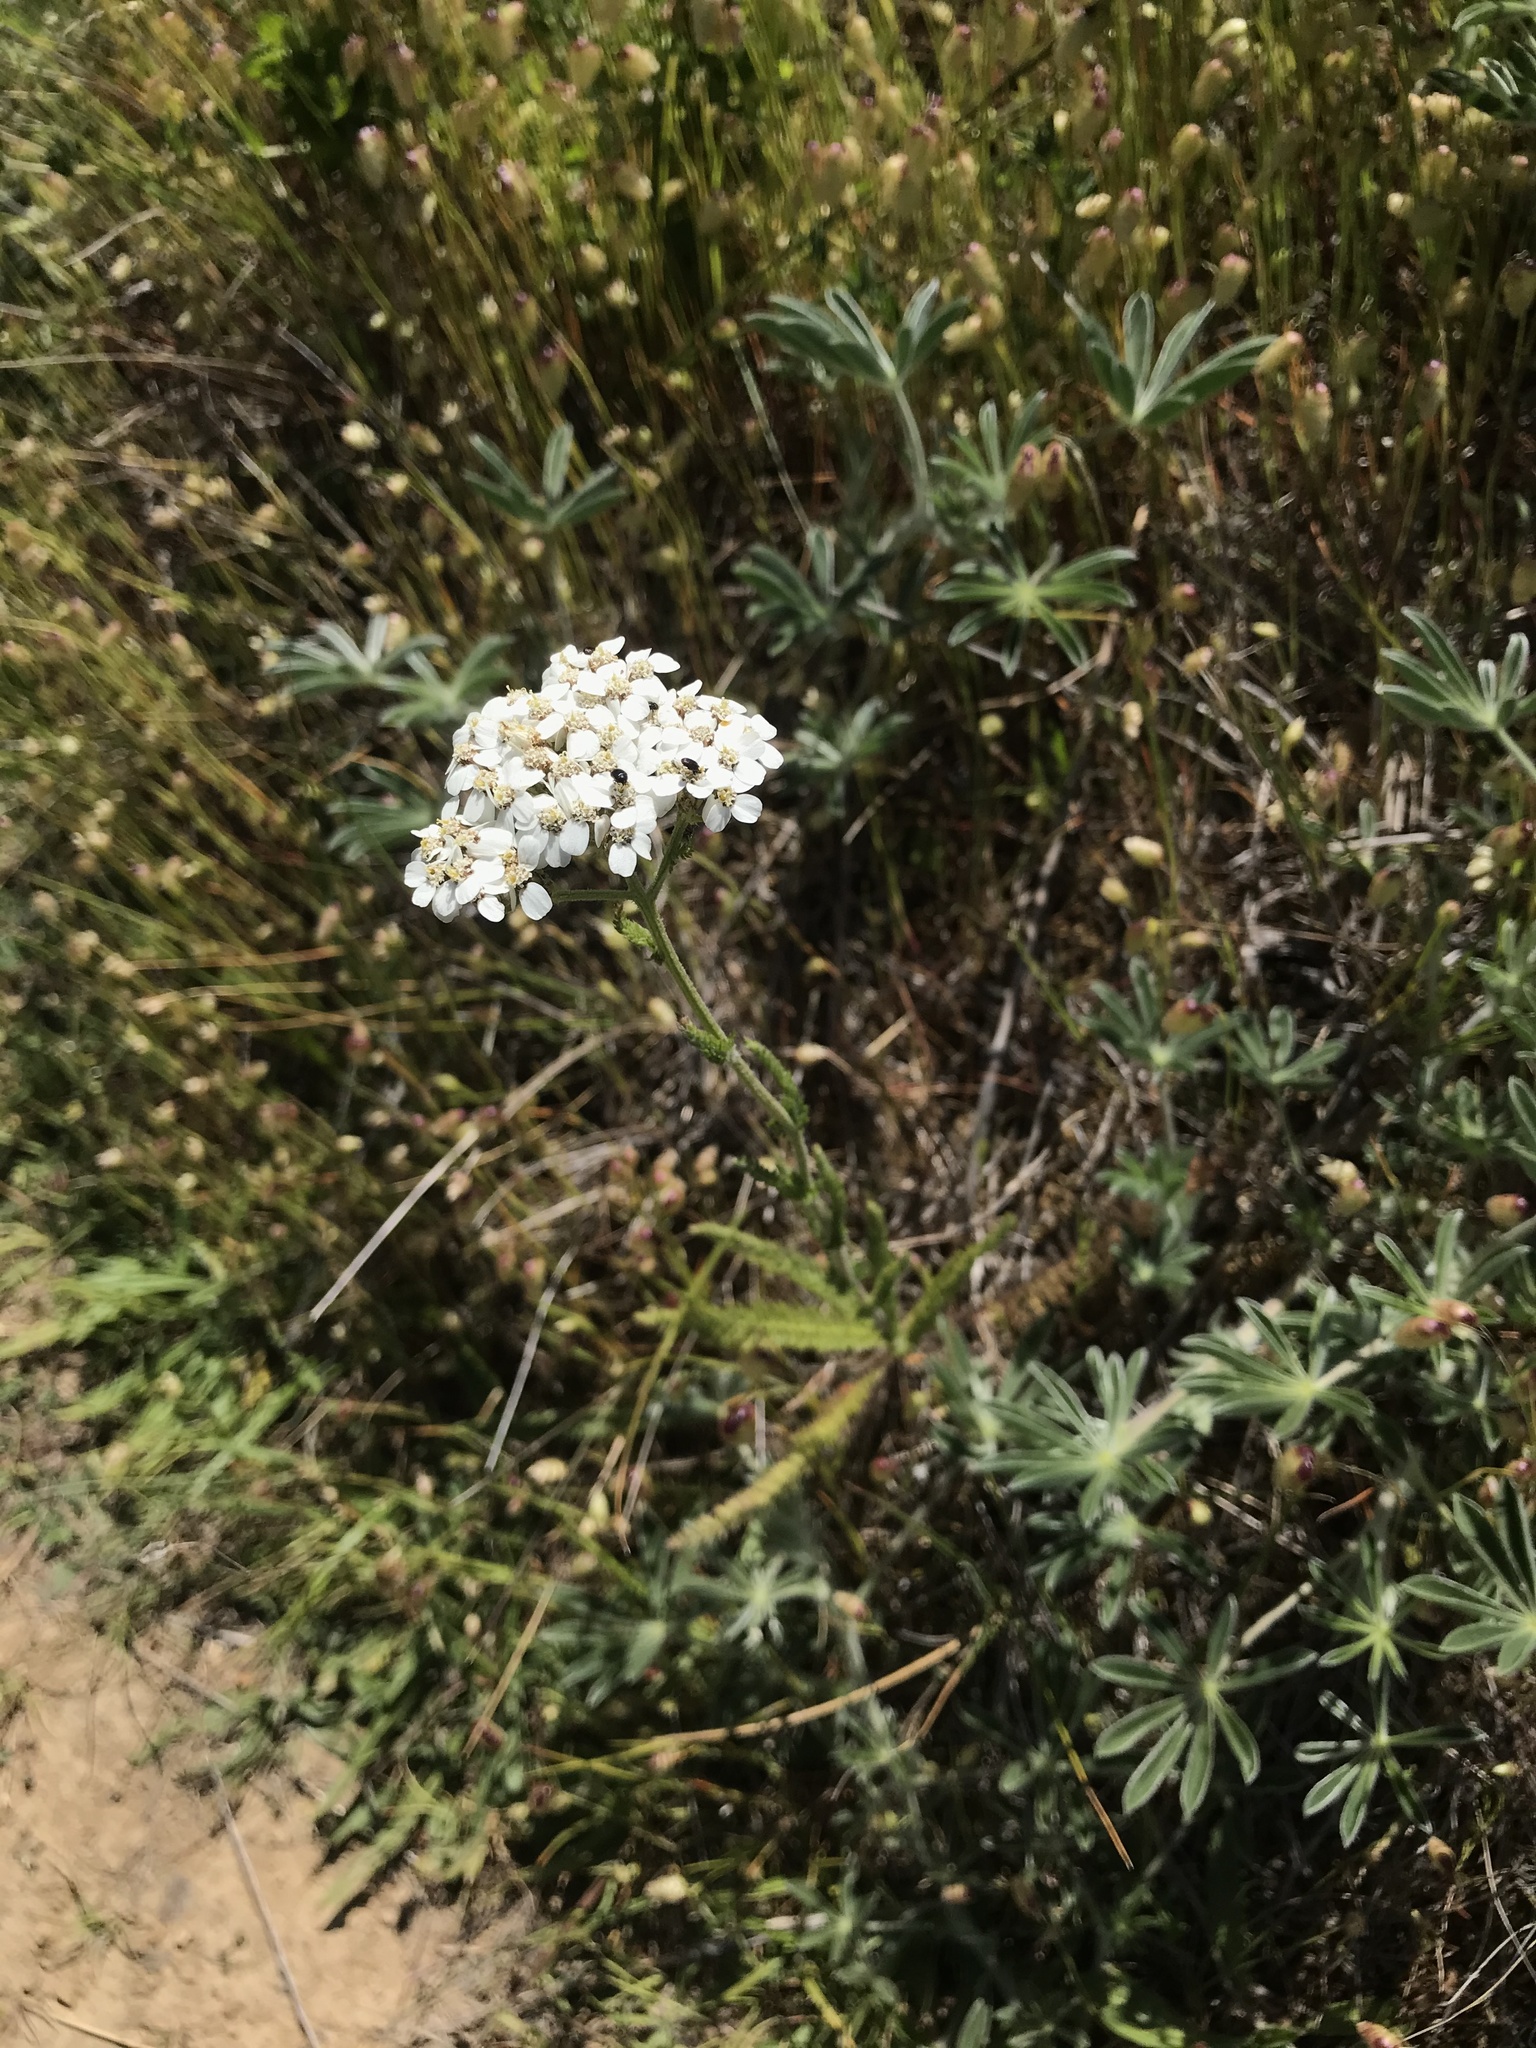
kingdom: Plantae
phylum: Tracheophyta
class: Magnoliopsida
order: Asterales
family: Asteraceae
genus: Achillea
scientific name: Achillea millefolium
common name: Yarrow
